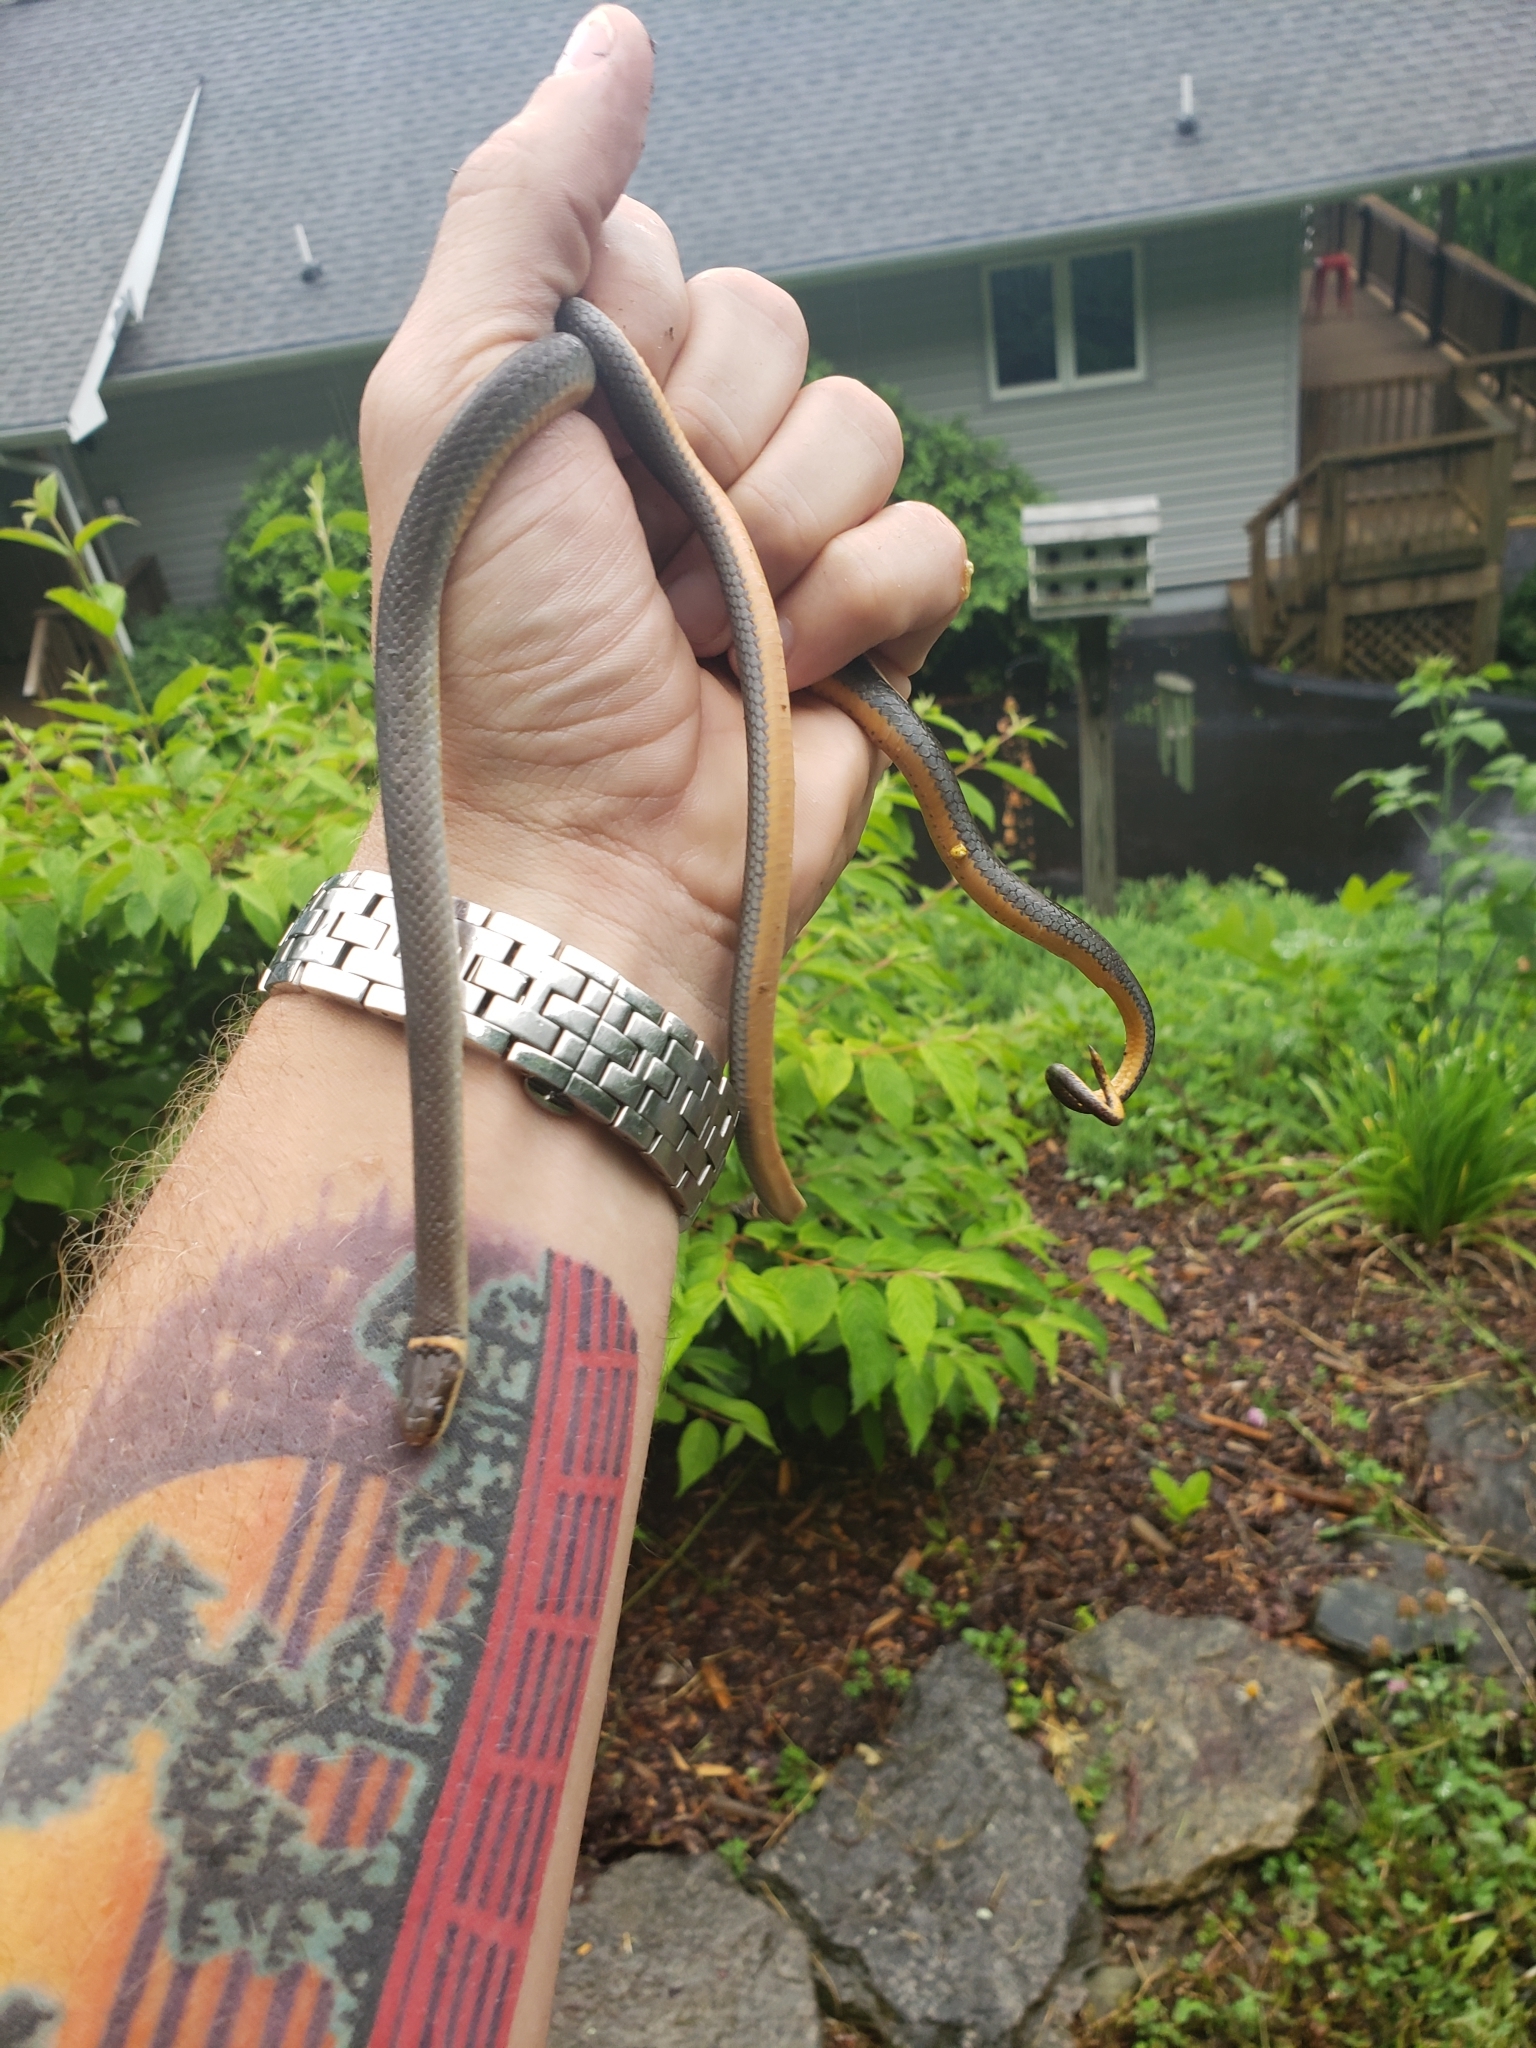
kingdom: Animalia
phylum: Chordata
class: Squamata
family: Colubridae
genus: Diadophis
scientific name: Diadophis punctatus
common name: Ringneck snake
